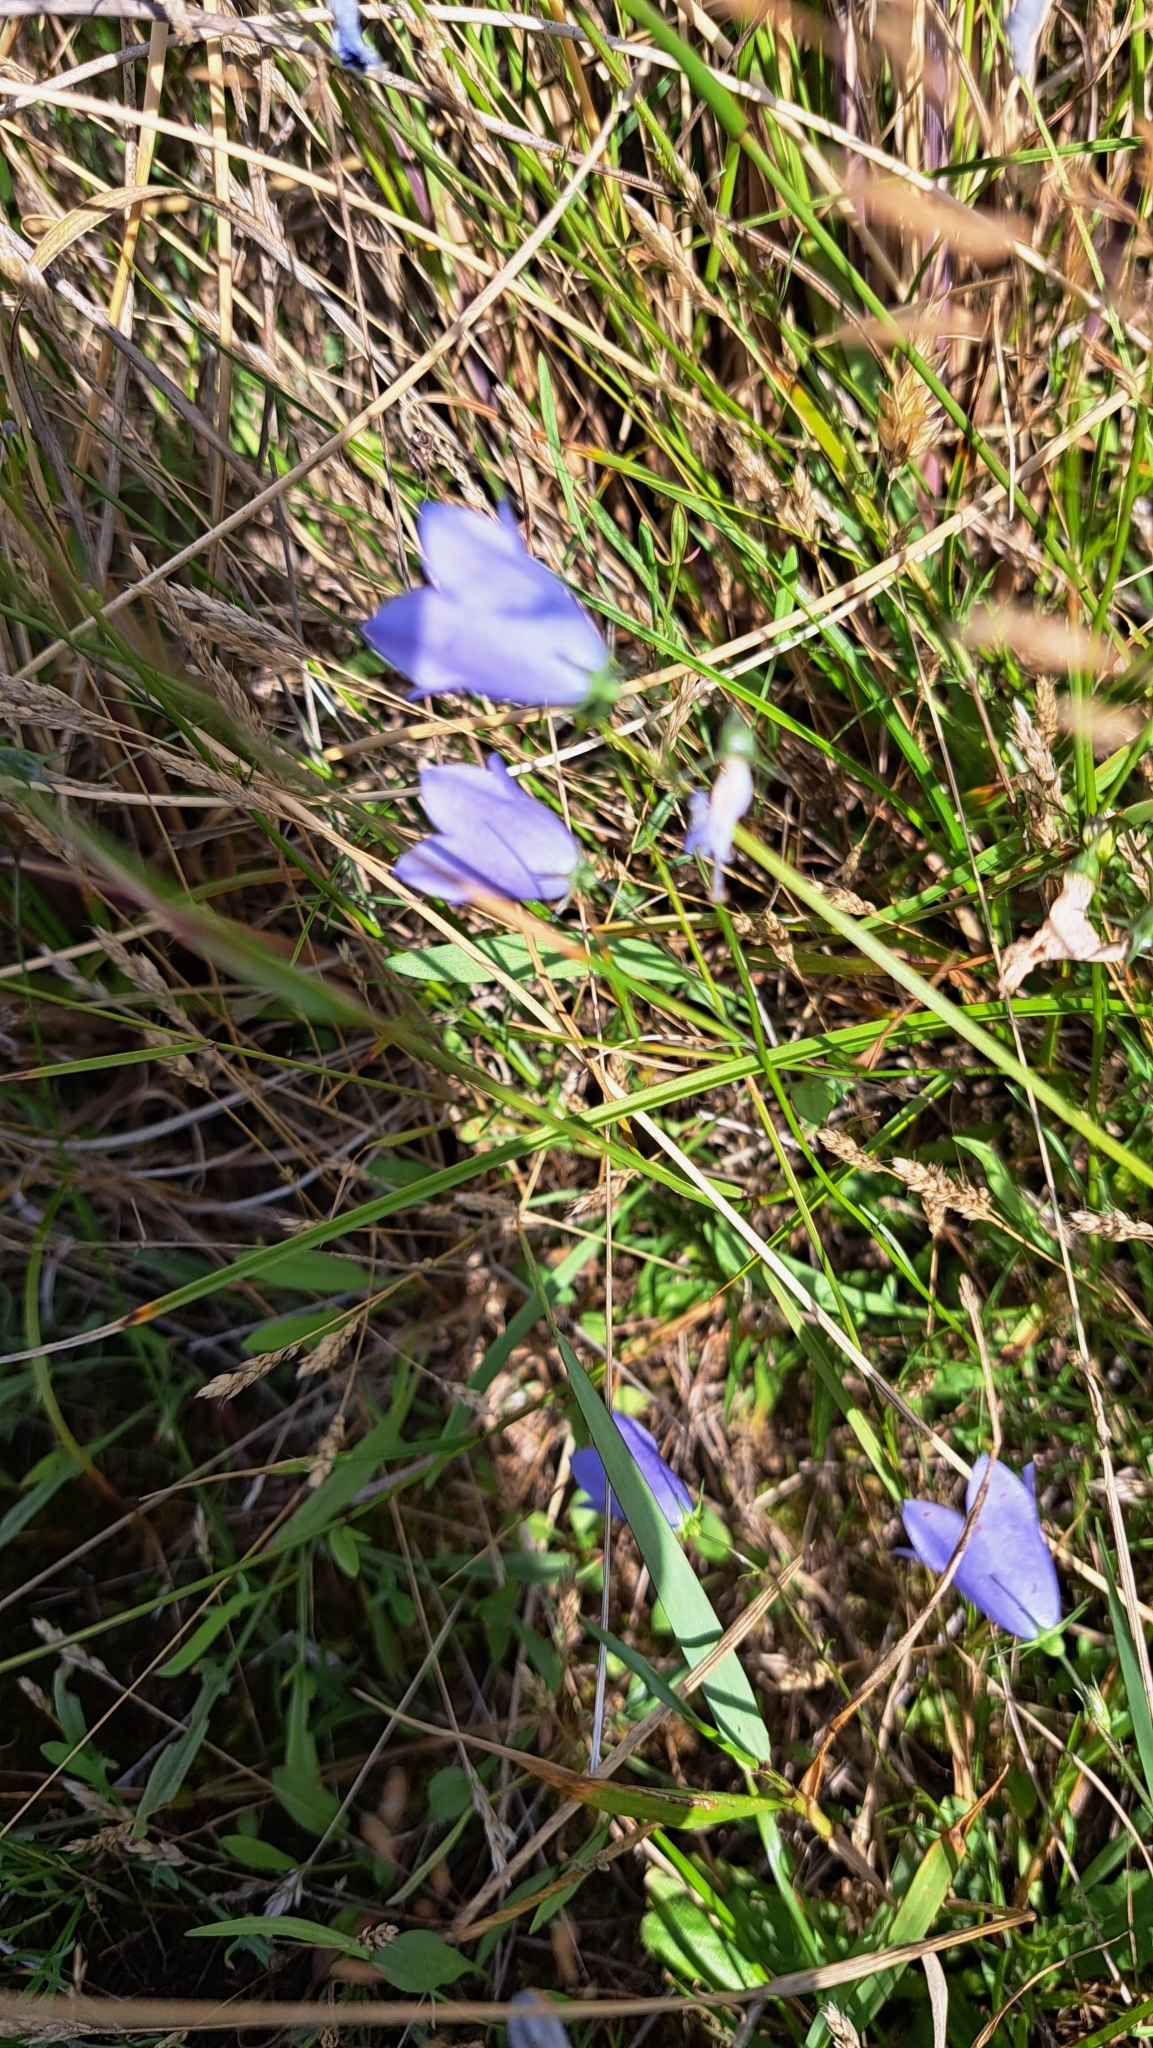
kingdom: Plantae
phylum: Tracheophyta
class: Magnoliopsida
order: Asterales
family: Campanulaceae
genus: Campanula
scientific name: Campanula rotundifolia
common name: Harebell
